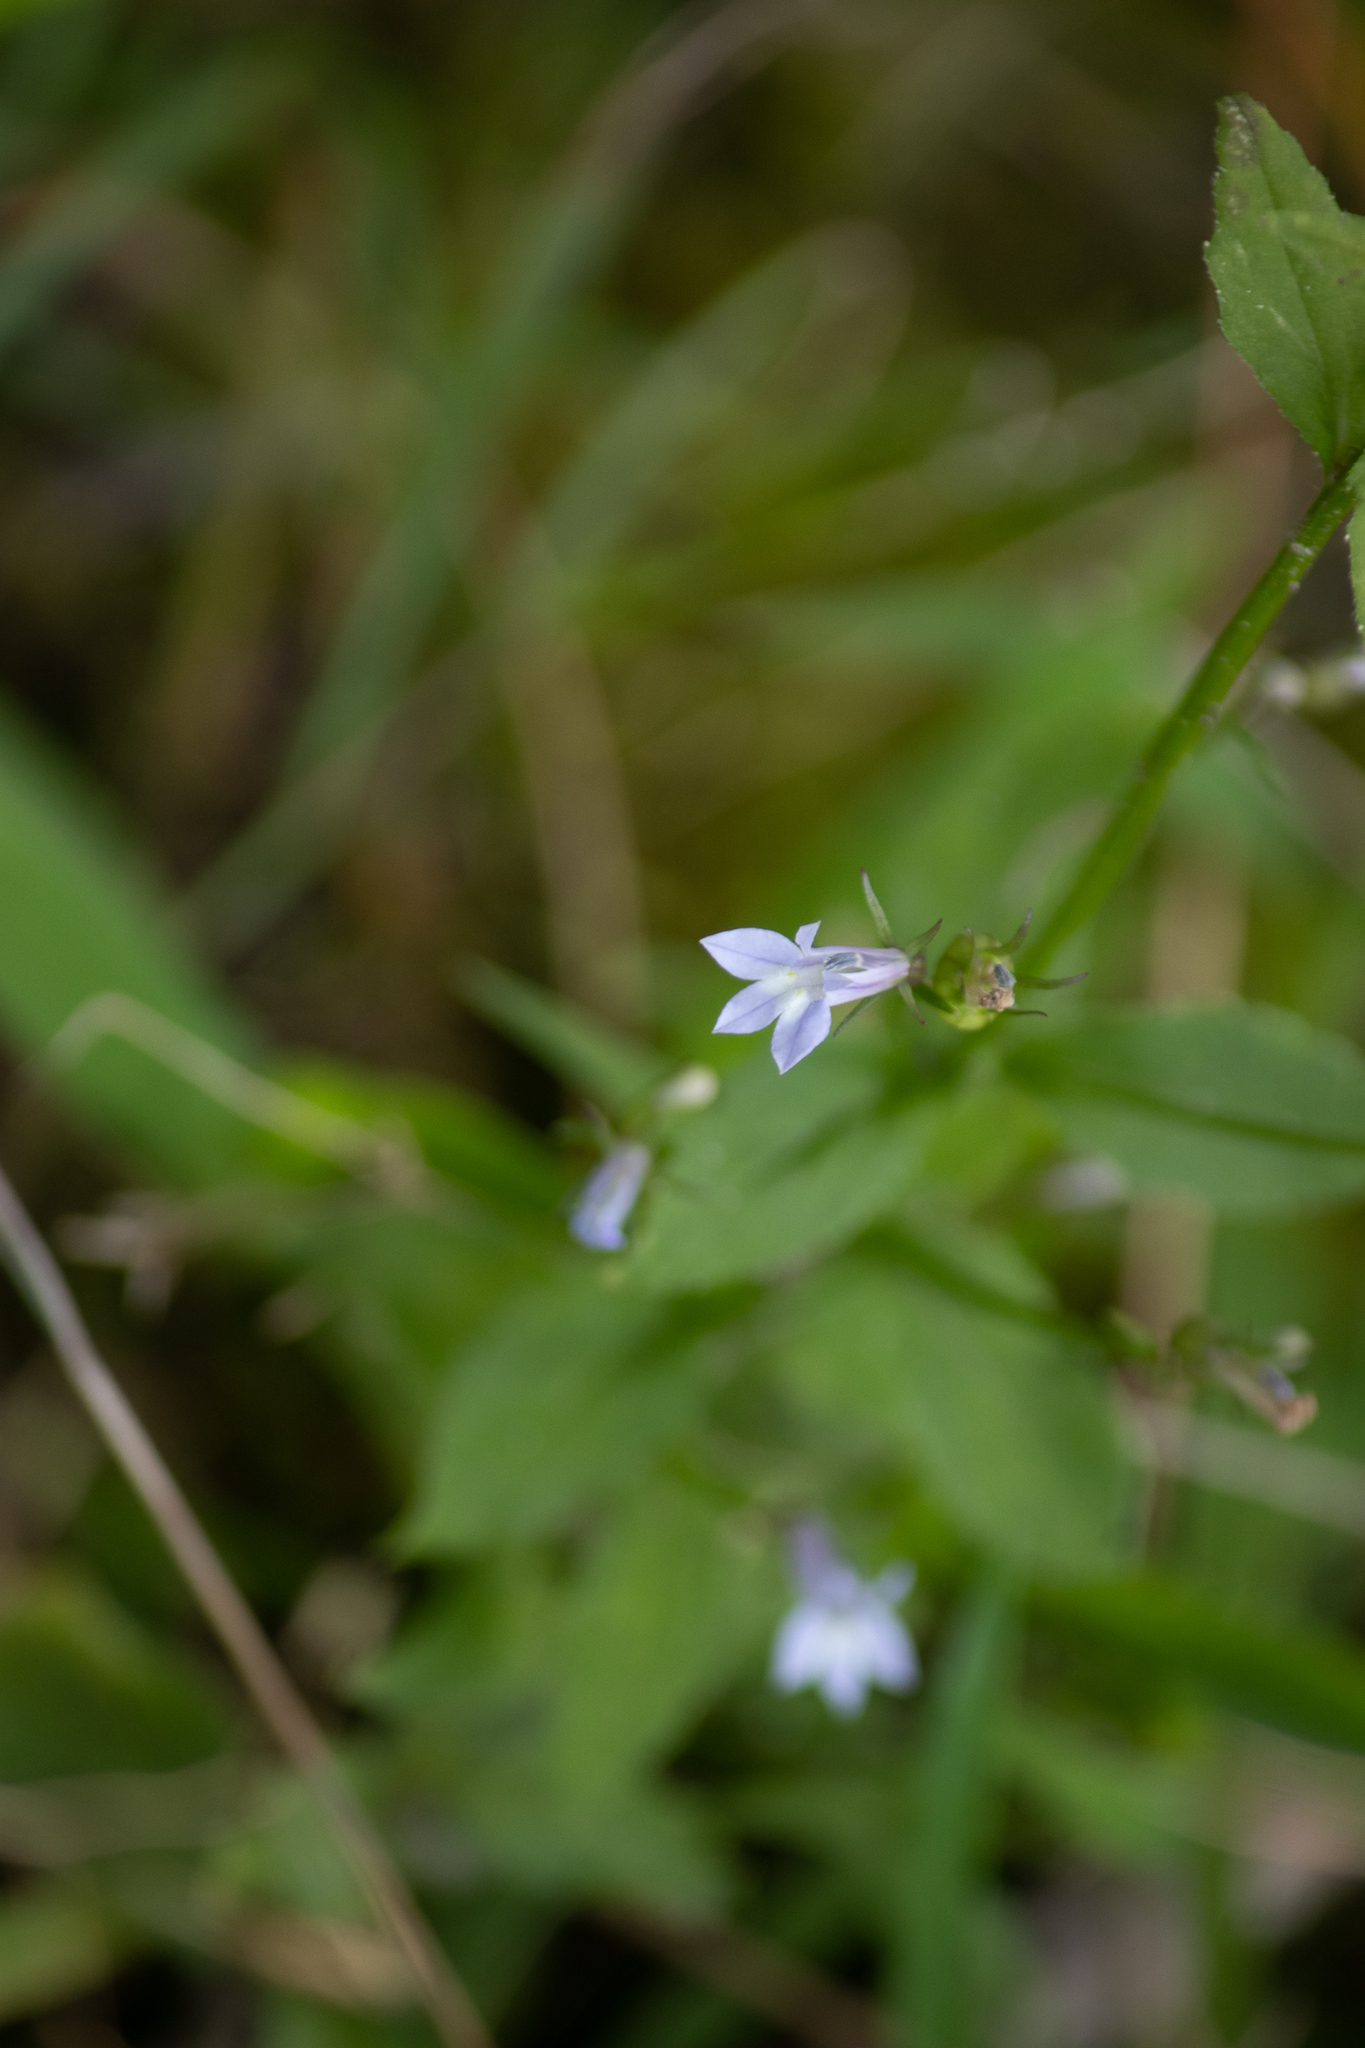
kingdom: Plantae
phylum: Tracheophyta
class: Magnoliopsida
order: Asterales
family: Campanulaceae
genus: Lobelia
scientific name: Lobelia inflata
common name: Indian tobacco
